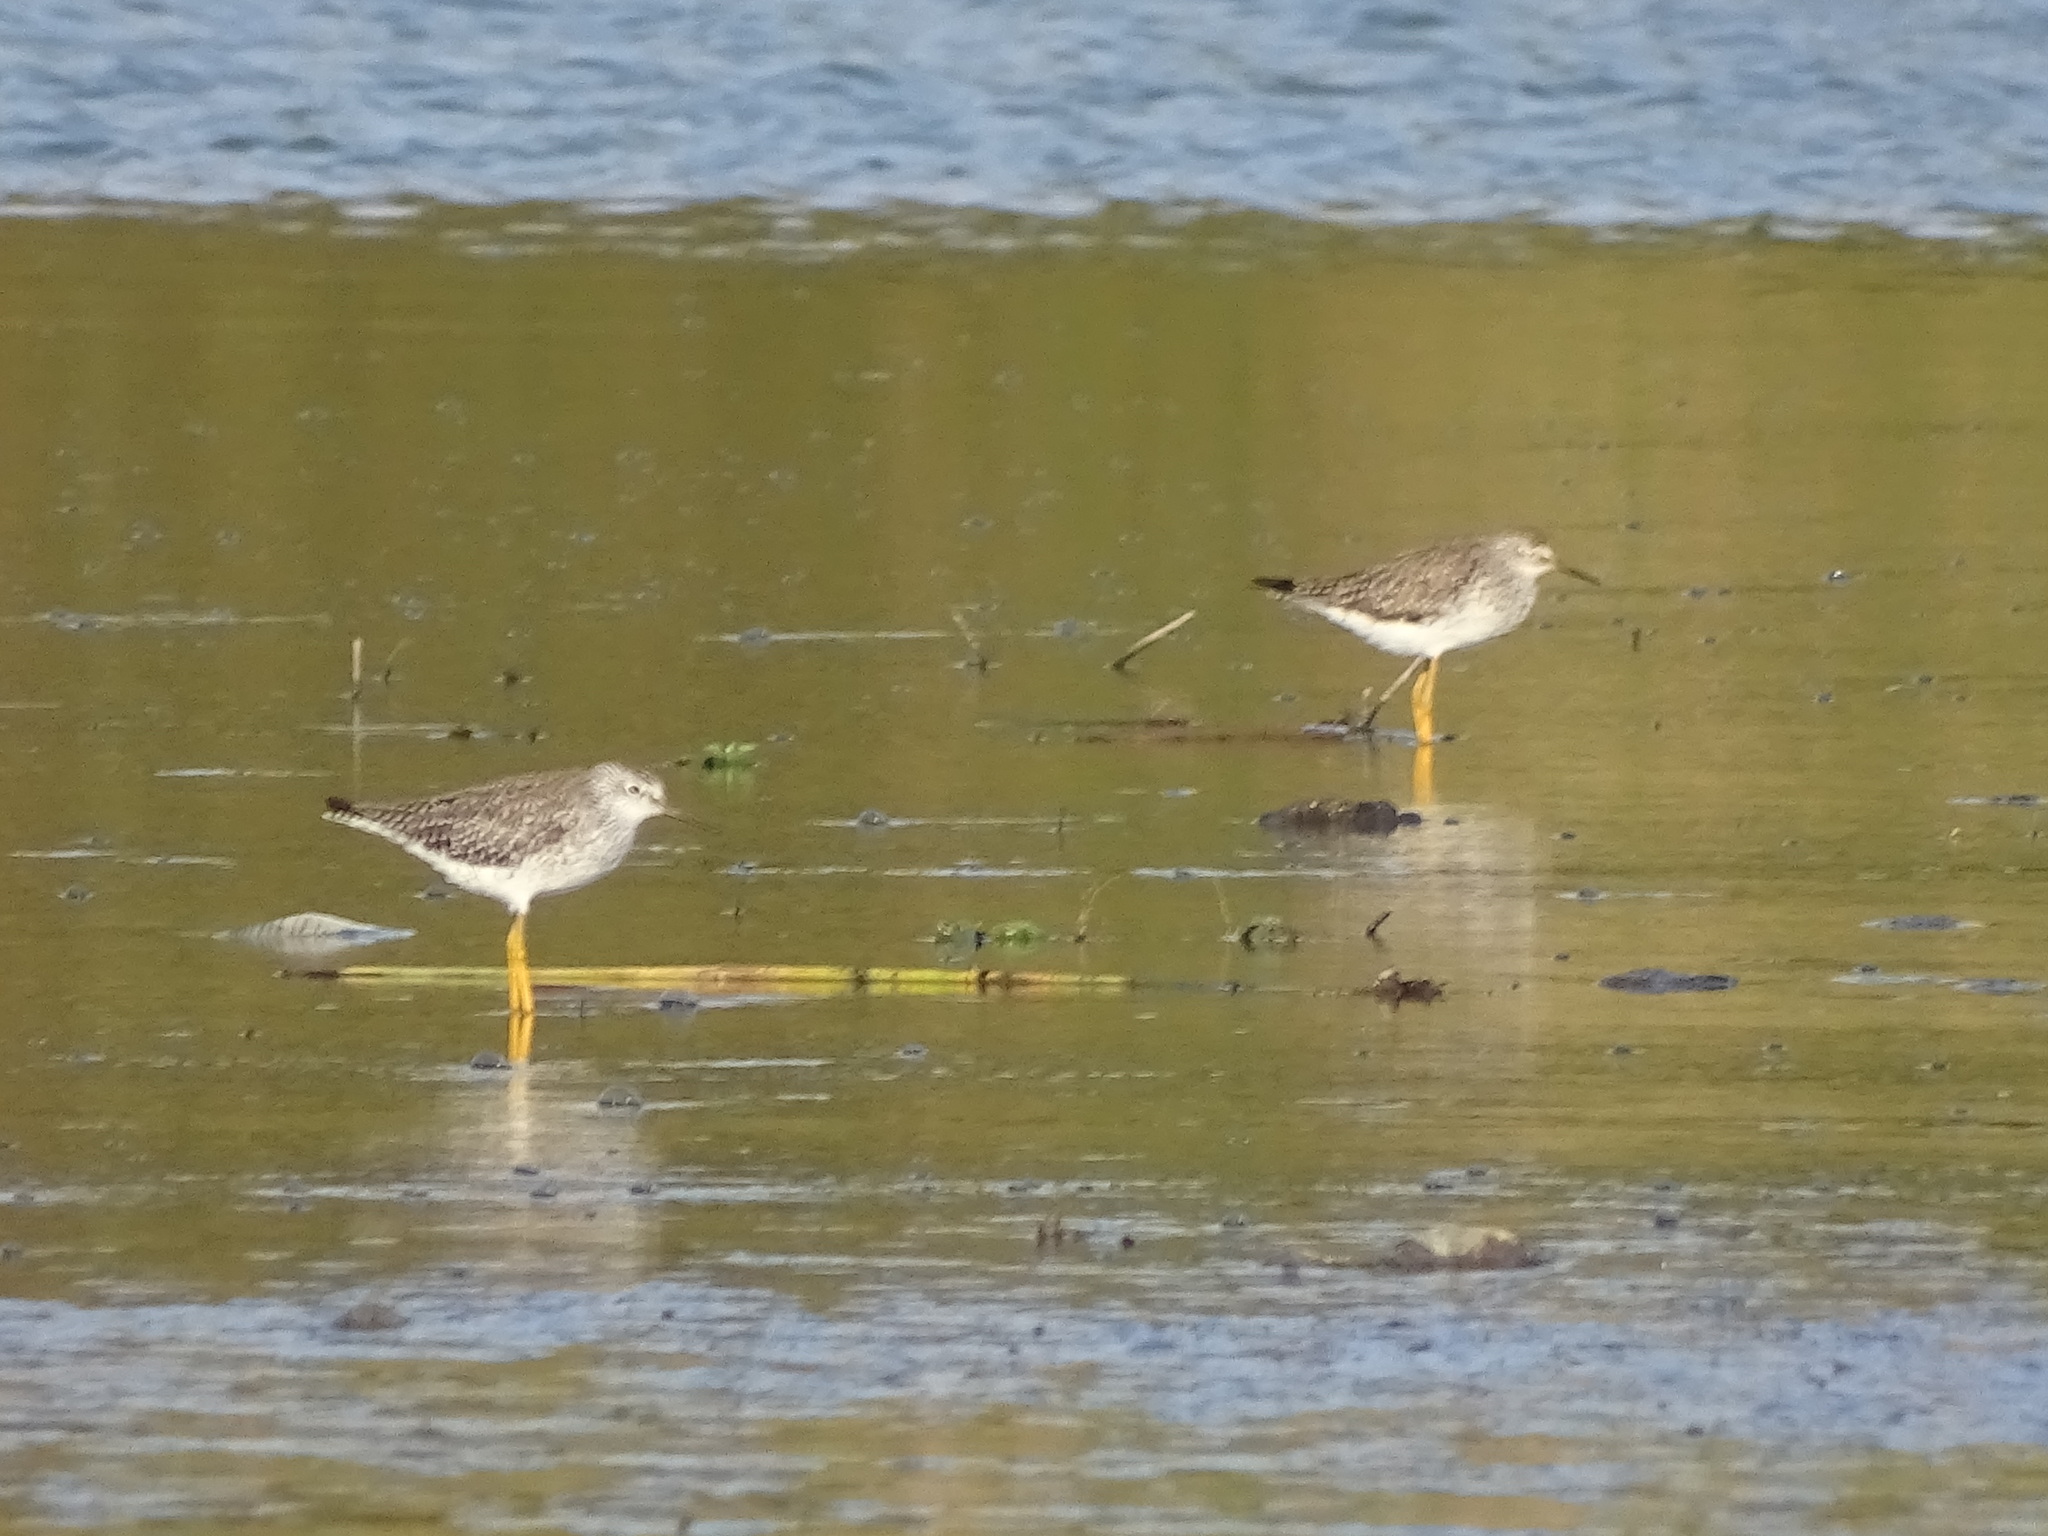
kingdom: Animalia
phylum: Chordata
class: Aves
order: Charadriiformes
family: Scolopacidae
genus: Tringa
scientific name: Tringa flavipes
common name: Lesser yellowlegs
